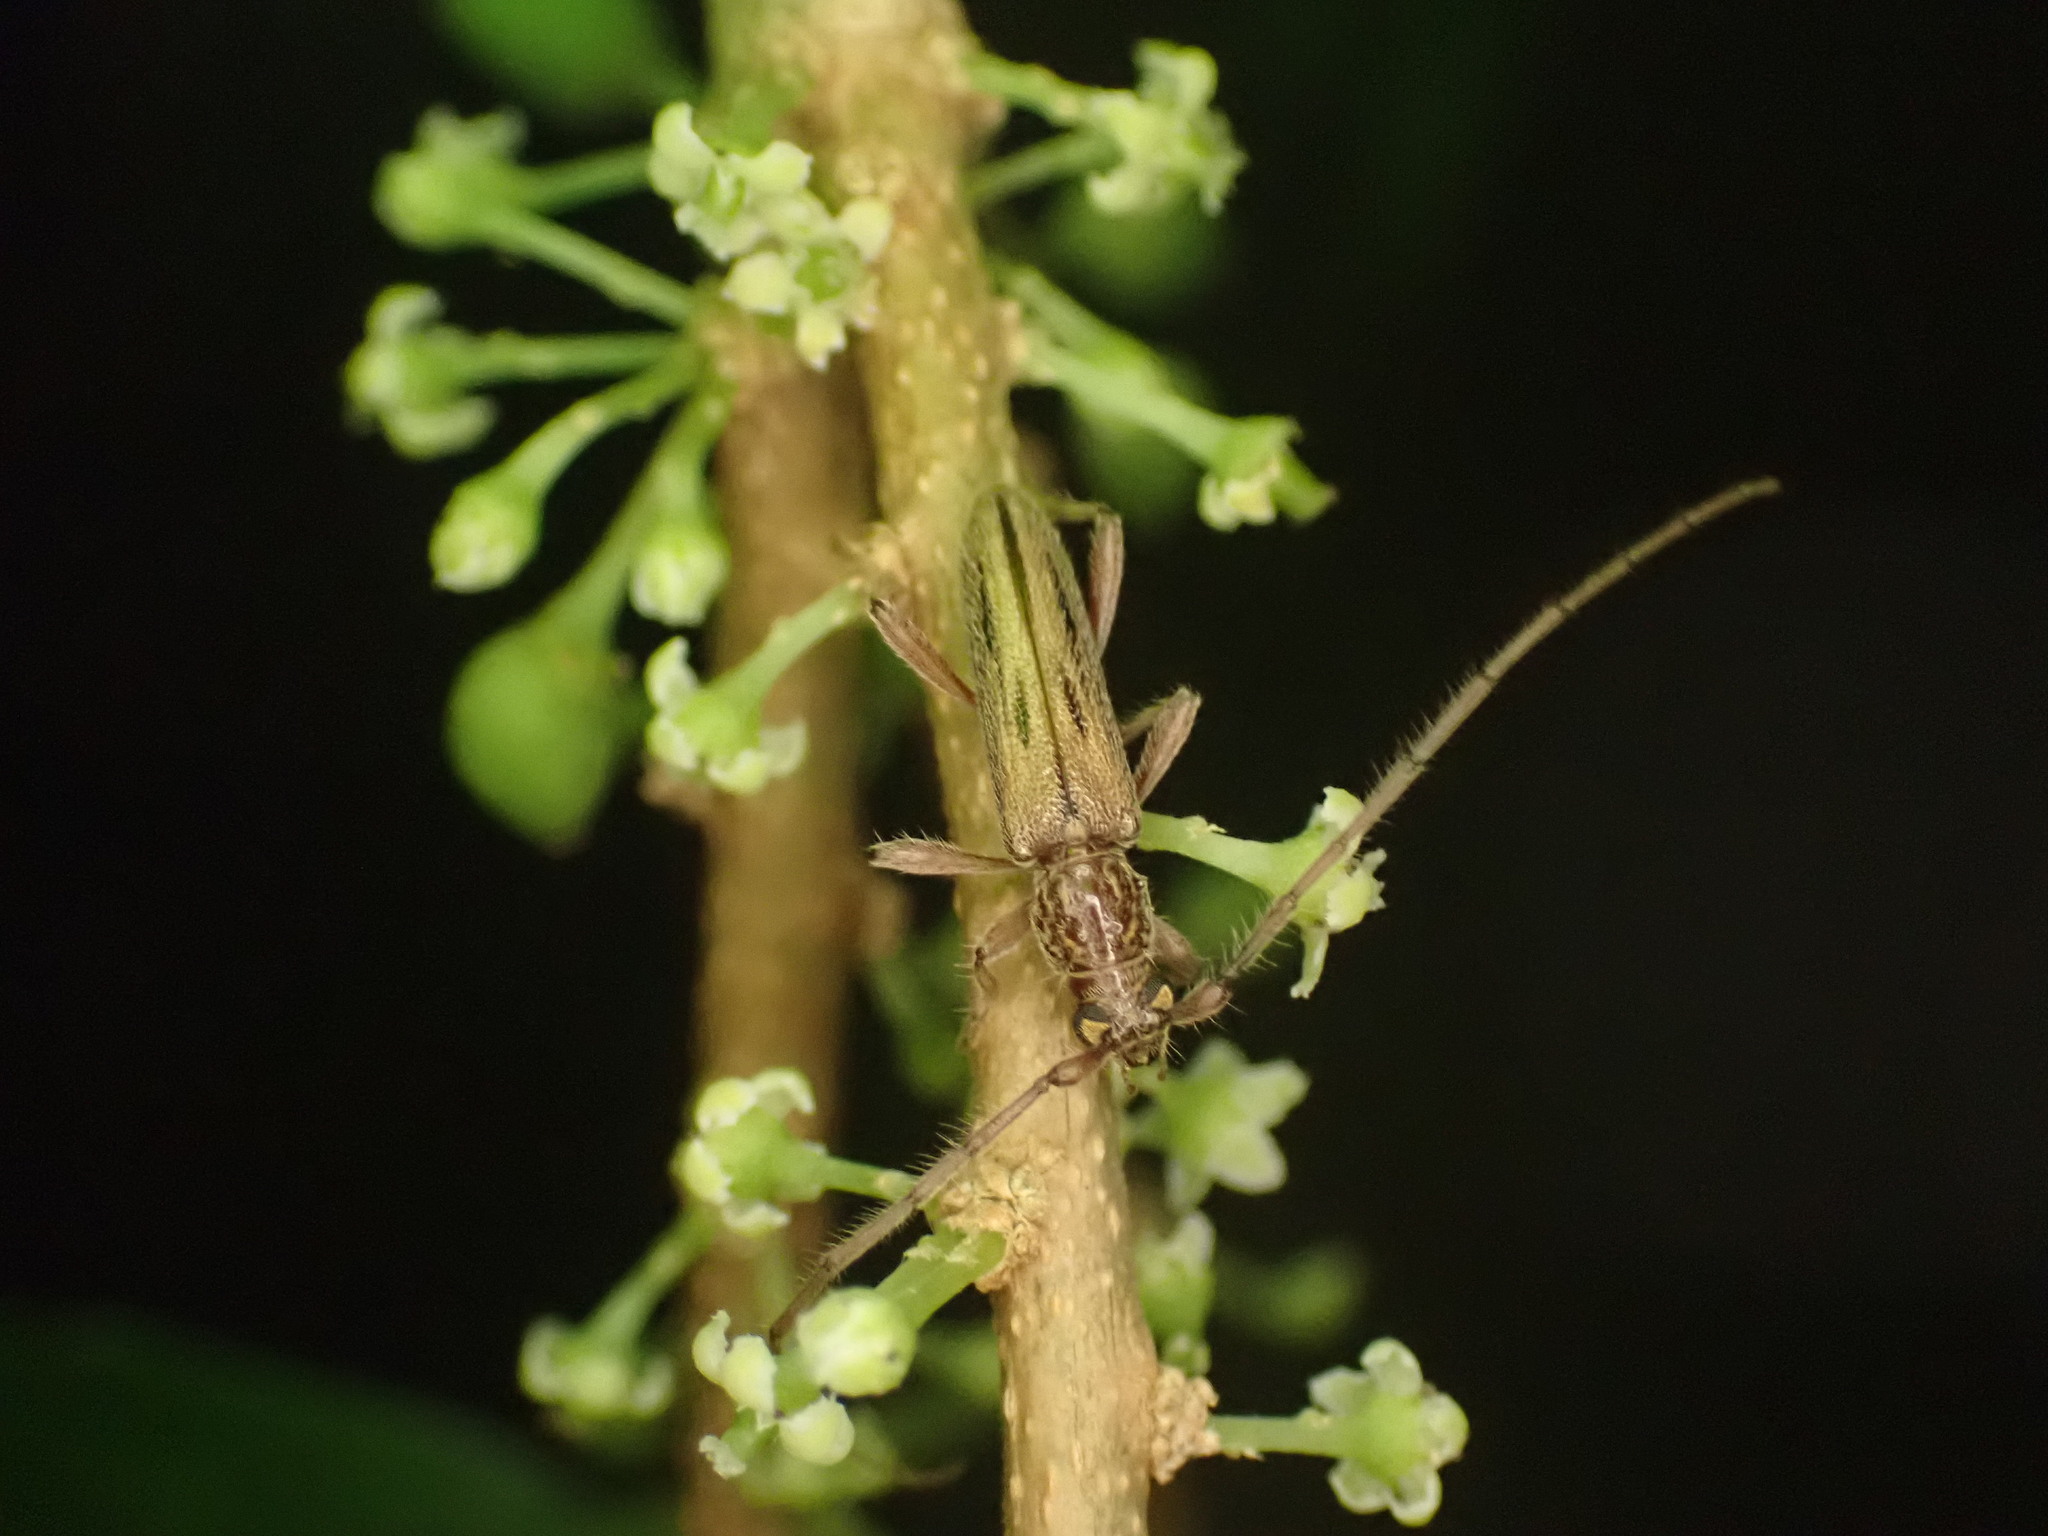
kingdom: Animalia
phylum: Arthropoda
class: Insecta
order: Coleoptera
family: Cerambycidae
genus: Didymocantha
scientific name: Didymocantha sublineata
